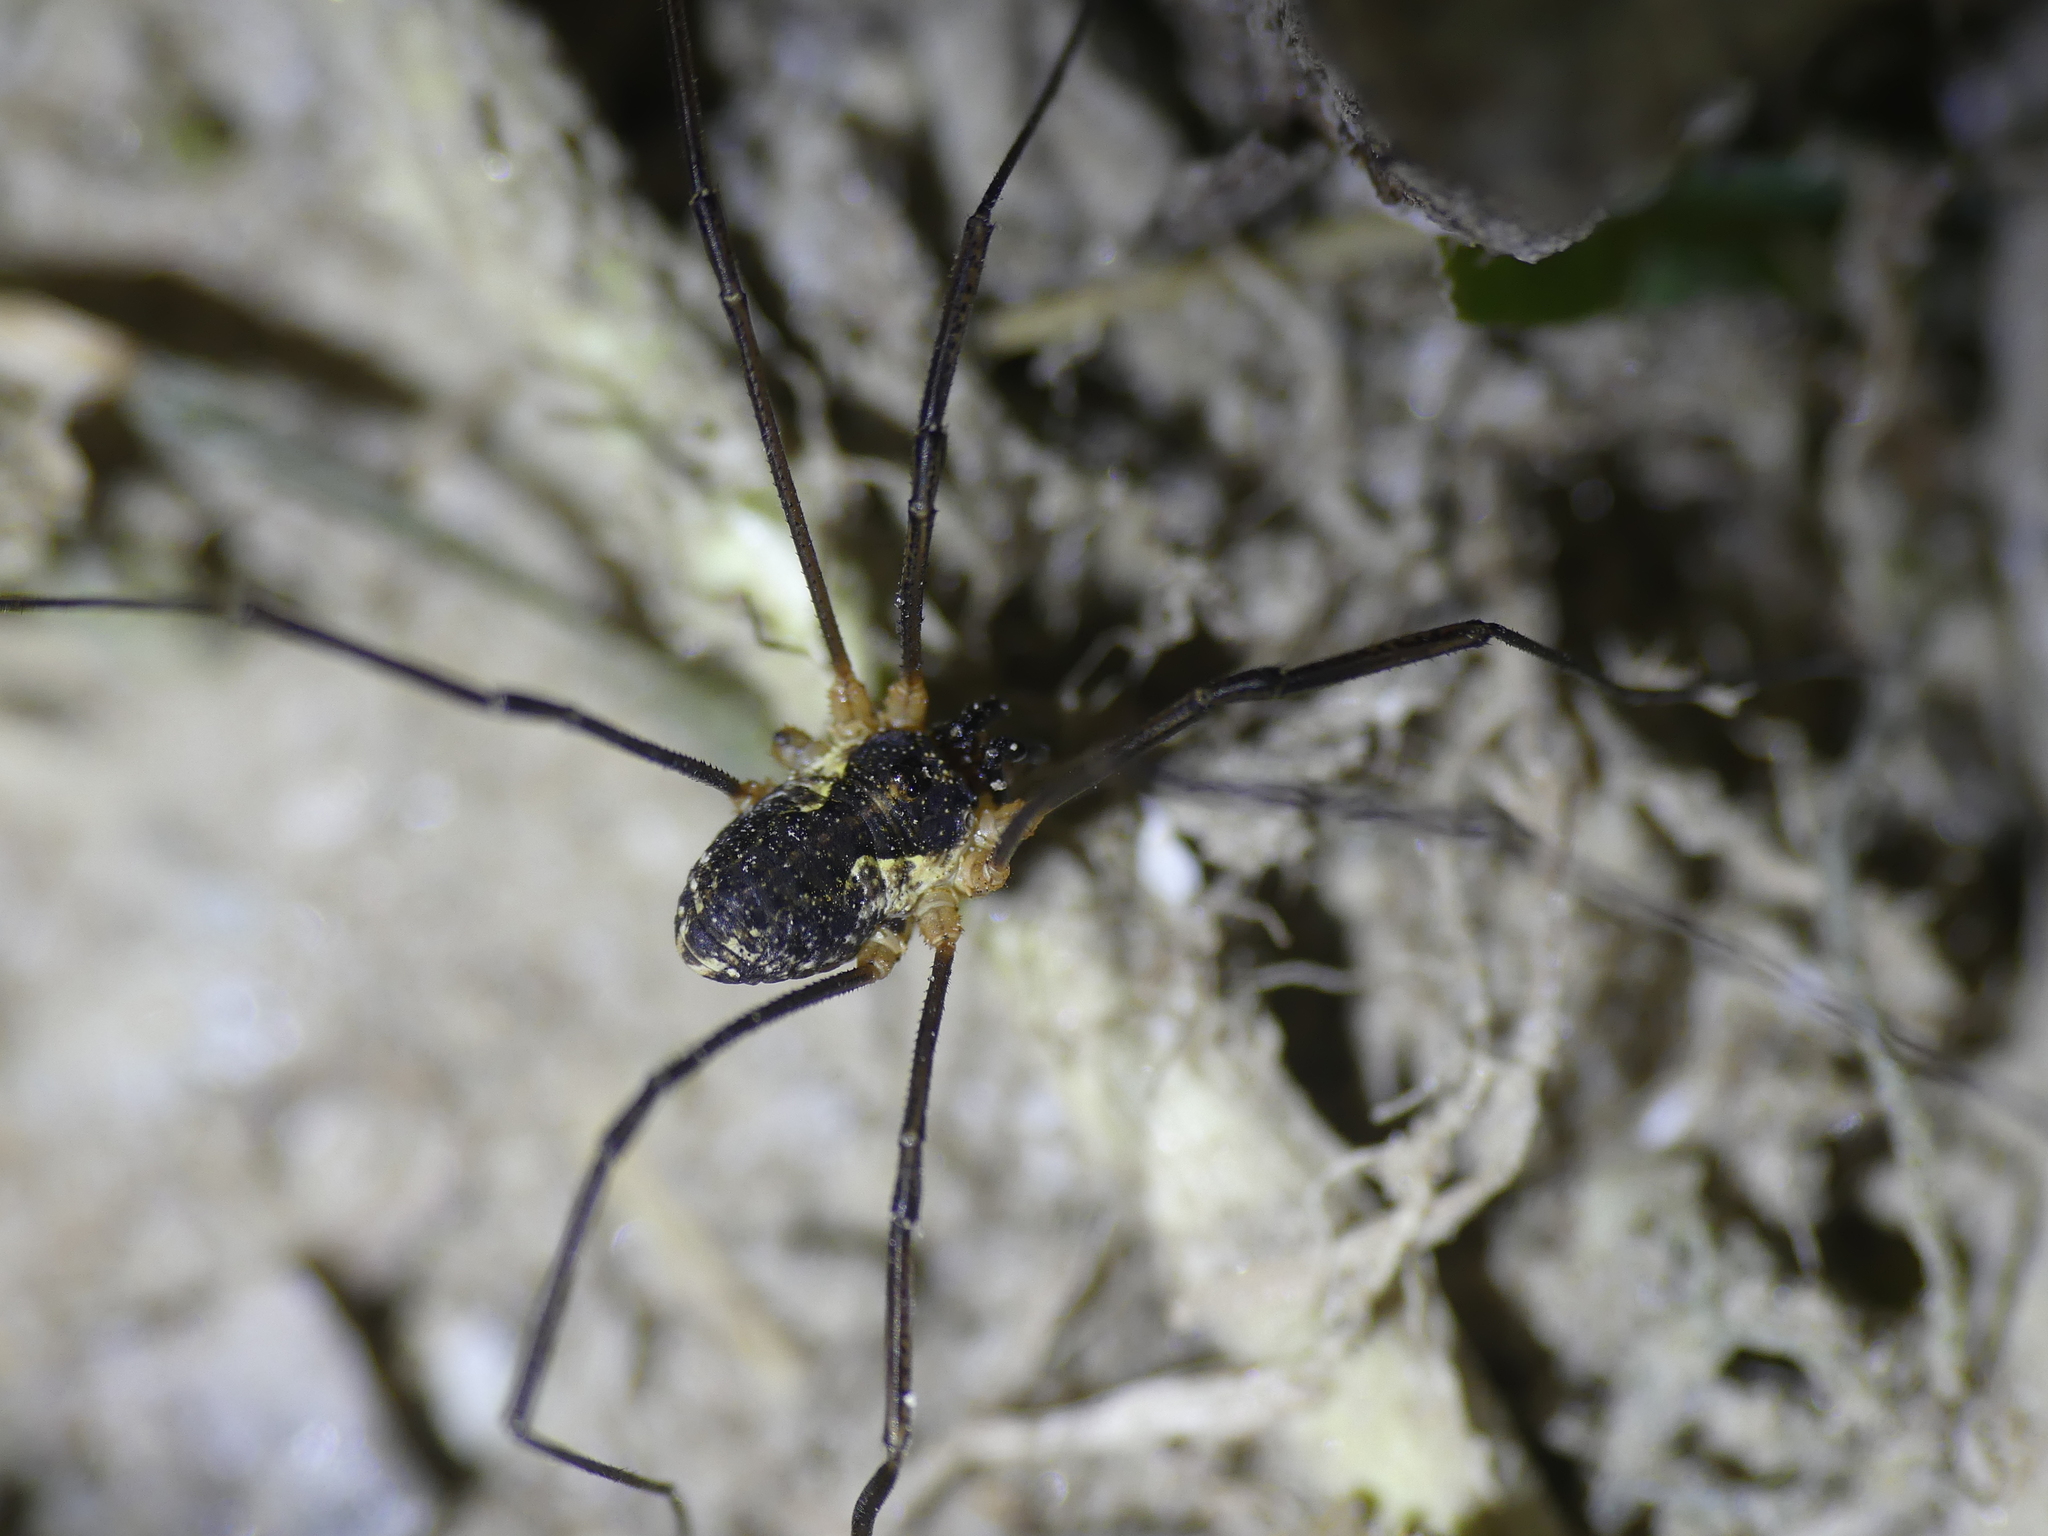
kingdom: Animalia
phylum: Arthropoda
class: Arachnida
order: Opiliones
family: Phalangiidae
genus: Mitopus
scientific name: Mitopus morio
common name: Saddleback harvestman
